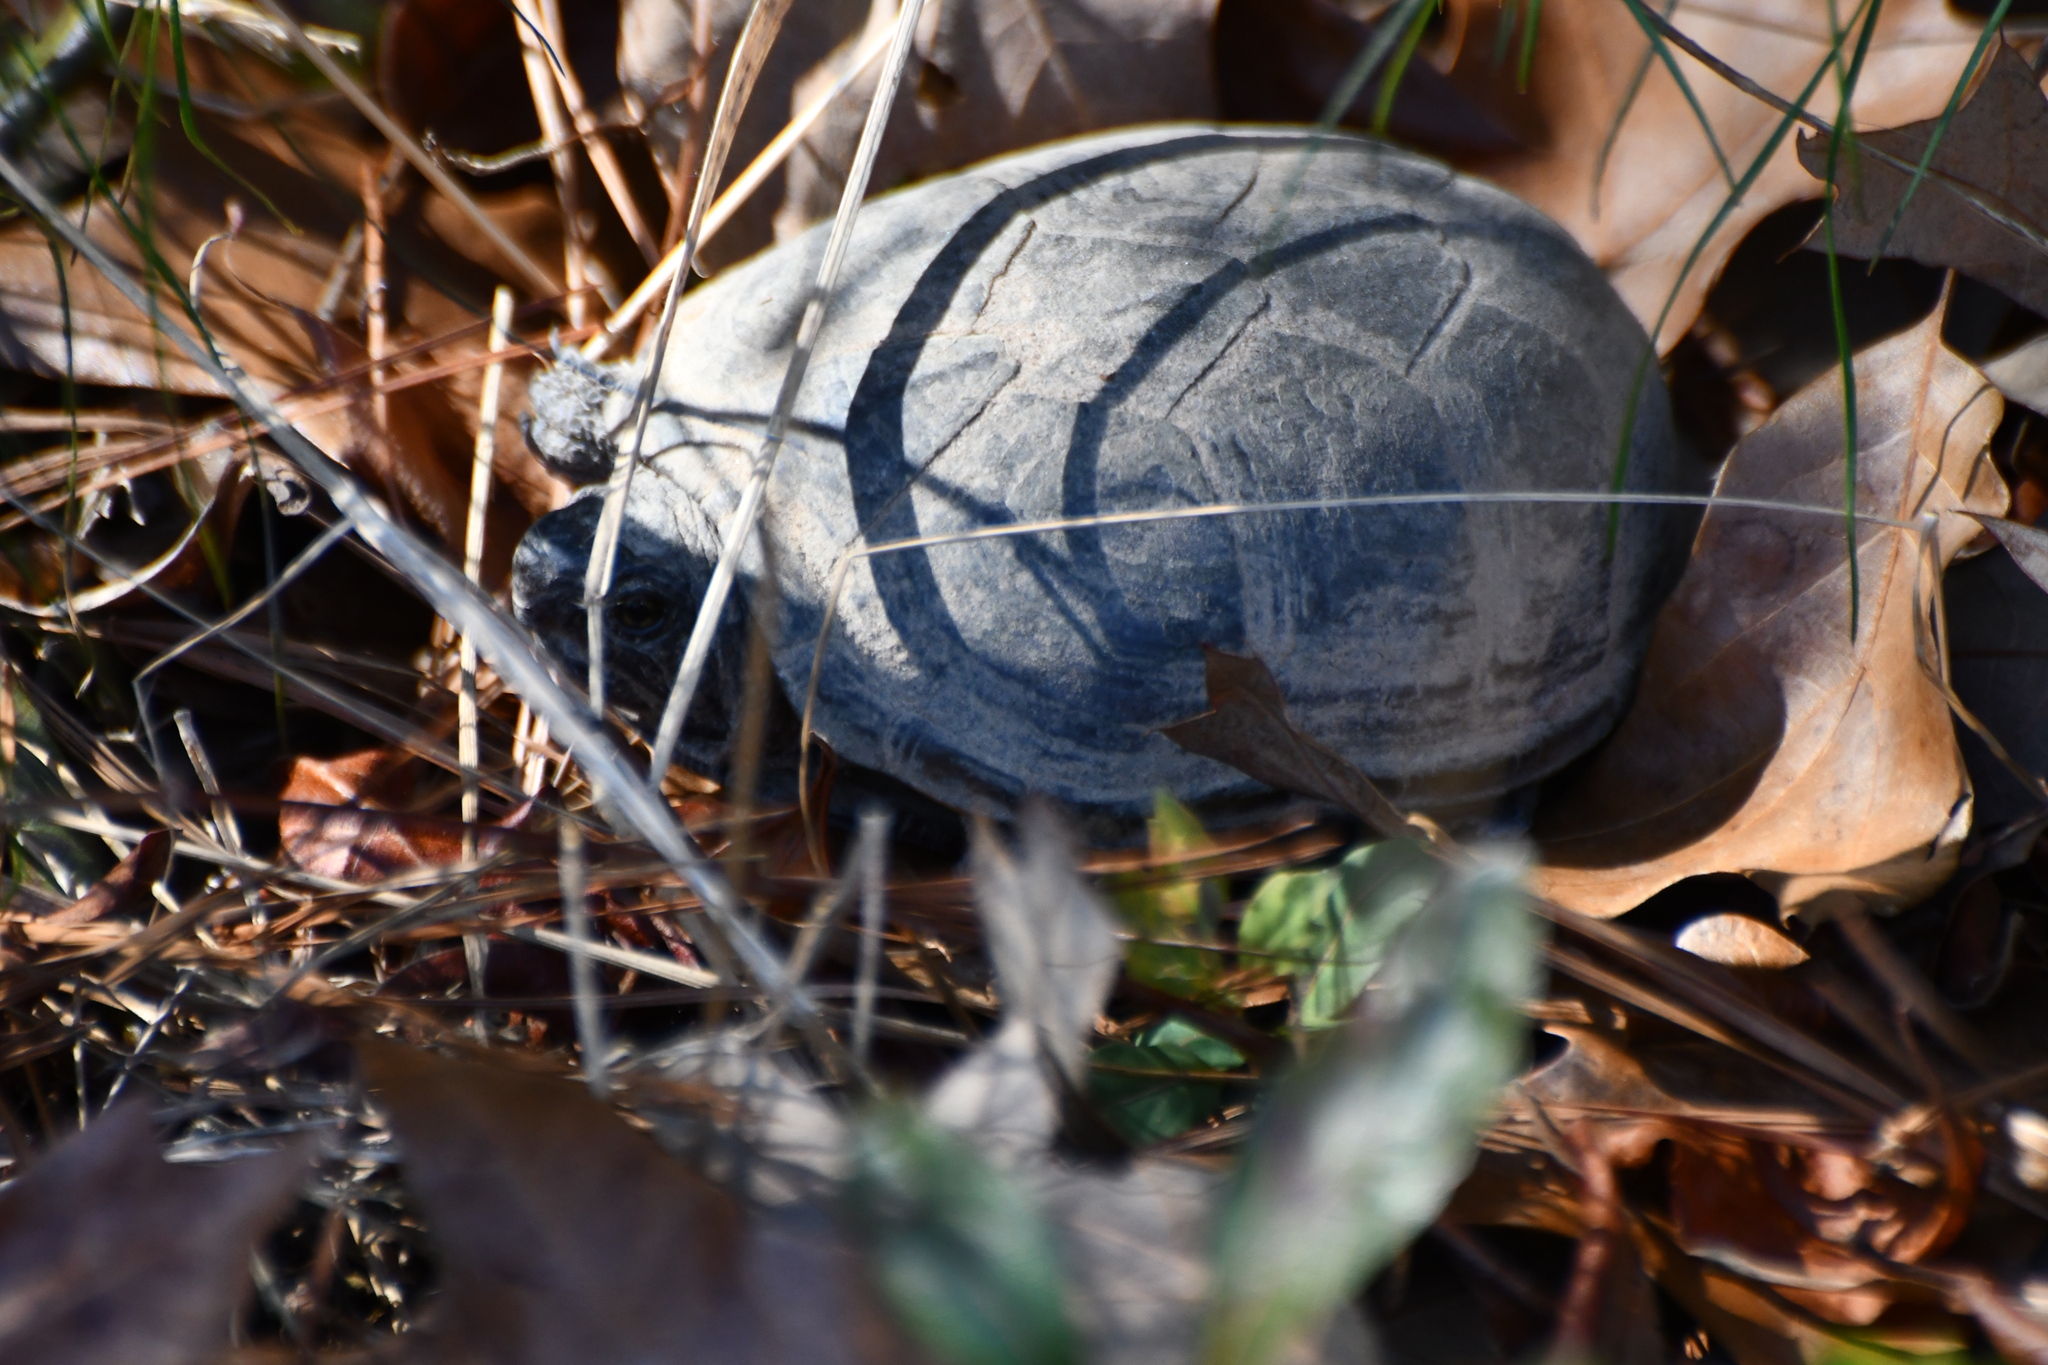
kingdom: Animalia
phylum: Chordata
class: Testudines
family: Kinosternidae
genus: Kinosternon
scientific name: Kinosternon baurii
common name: Striped mud turtle
